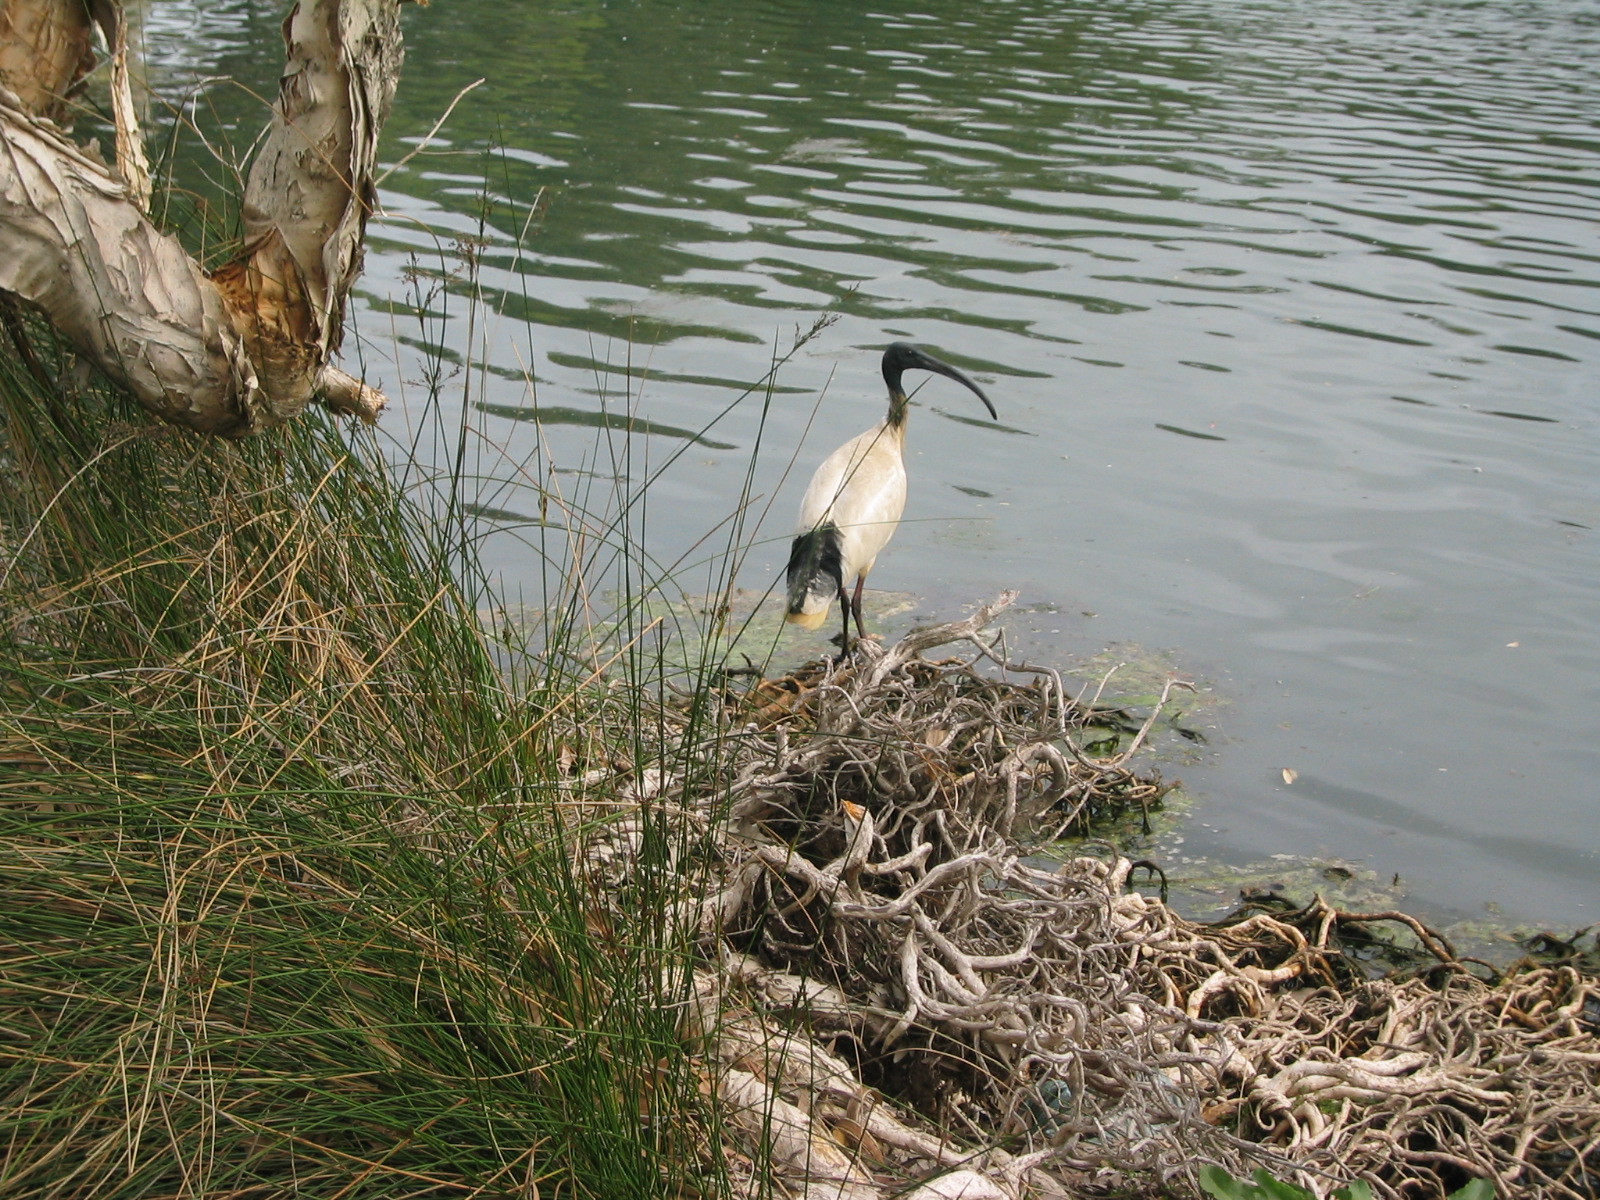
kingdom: Animalia
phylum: Chordata
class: Aves
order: Pelecaniformes
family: Threskiornithidae
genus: Threskiornis
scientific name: Threskiornis molucca
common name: Australian white ibis
